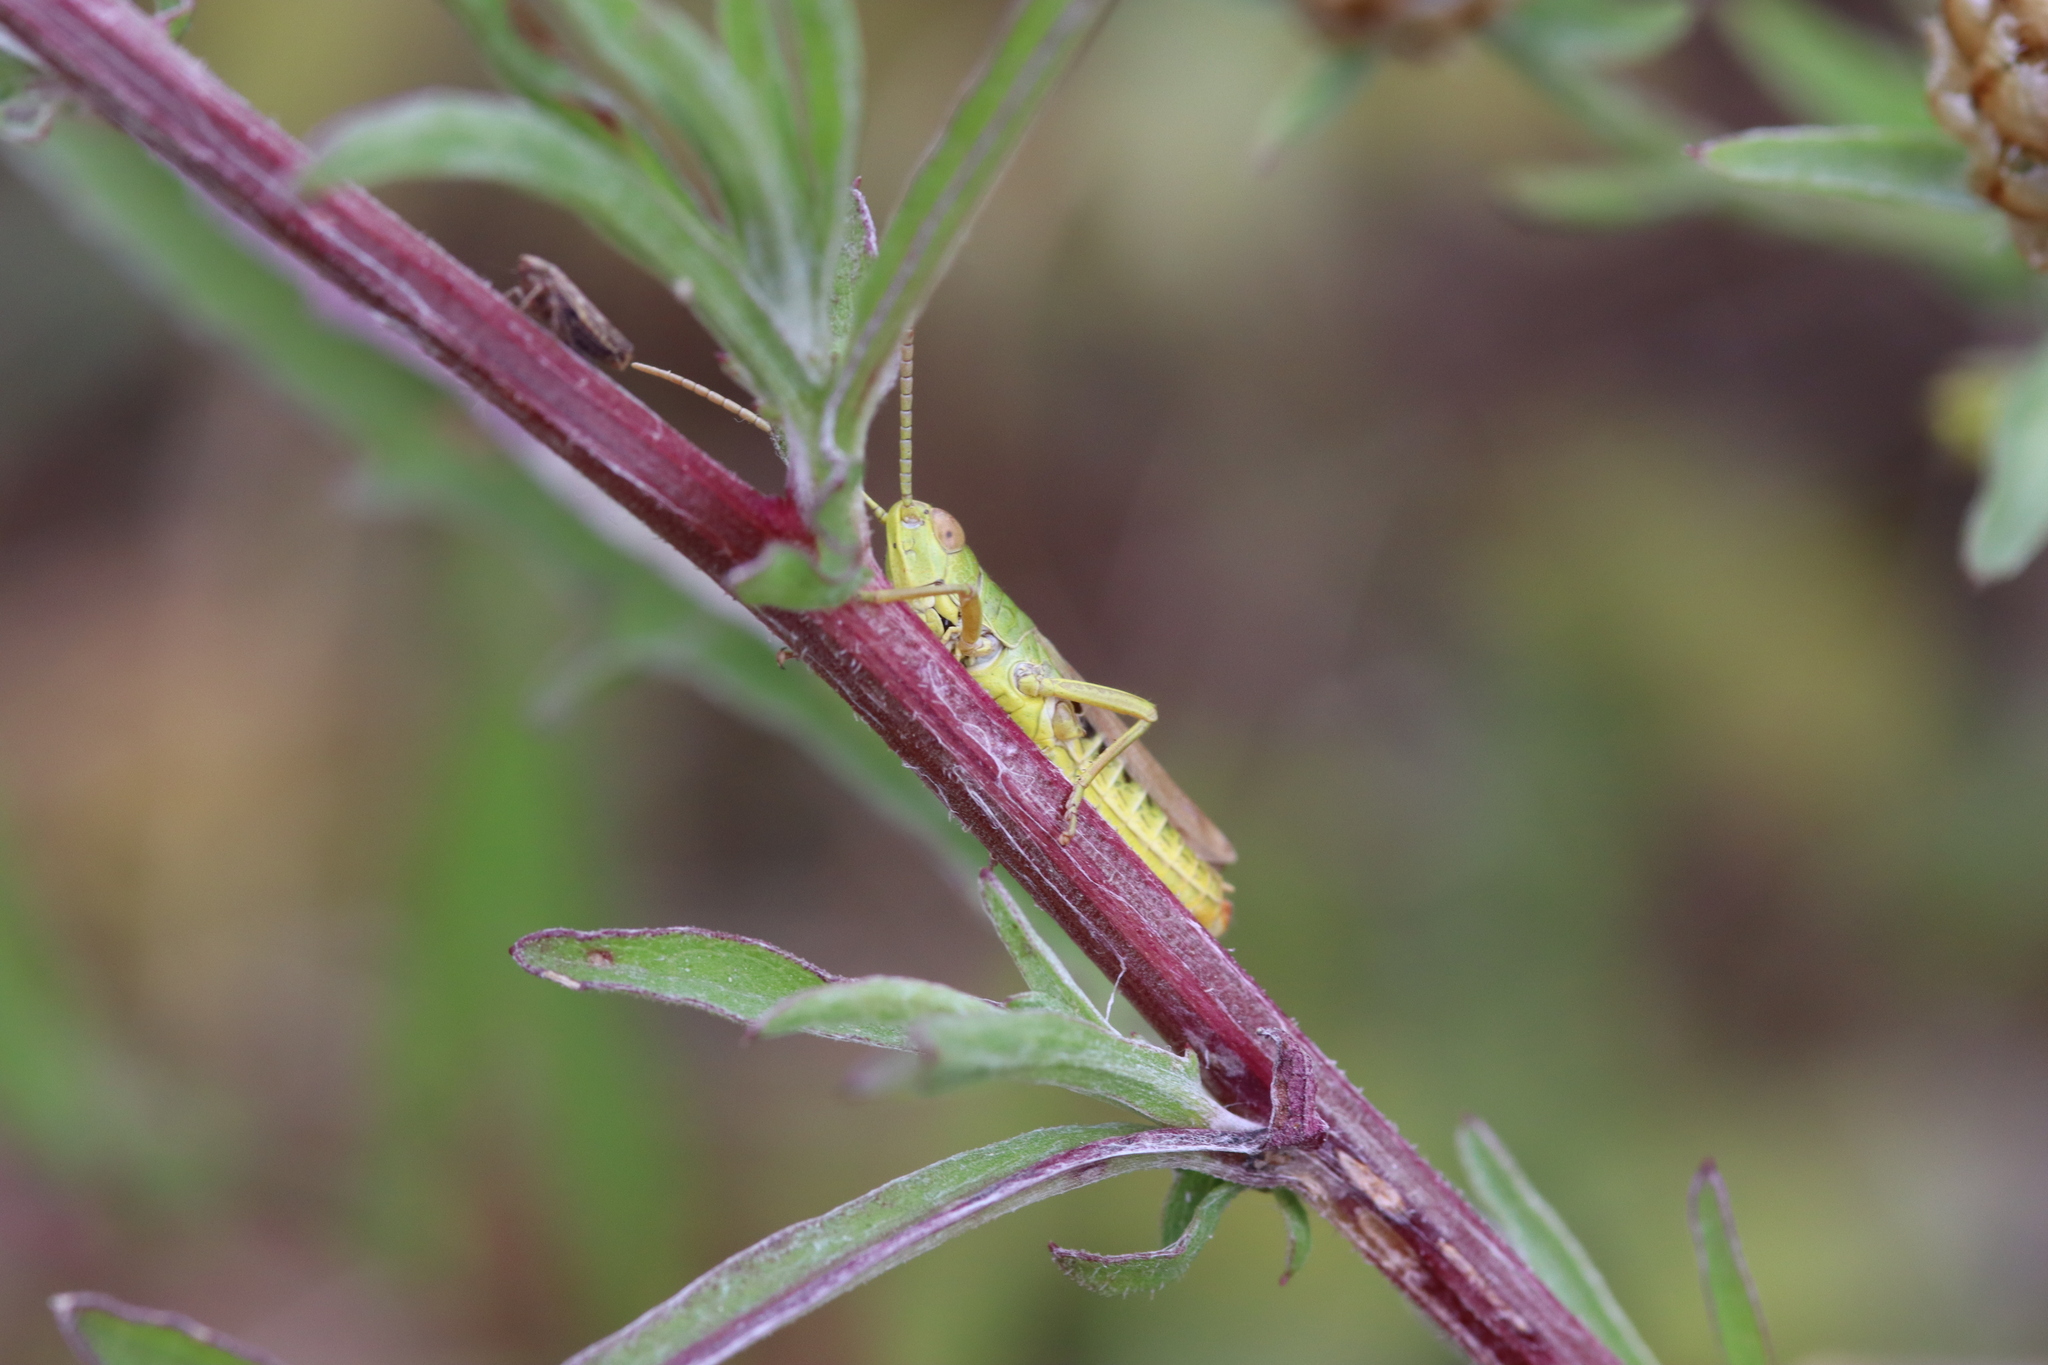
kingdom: Animalia
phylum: Arthropoda
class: Insecta
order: Orthoptera
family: Acrididae
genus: Pseudochorthippus
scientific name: Pseudochorthippus parallelus
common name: Meadow grasshopper
